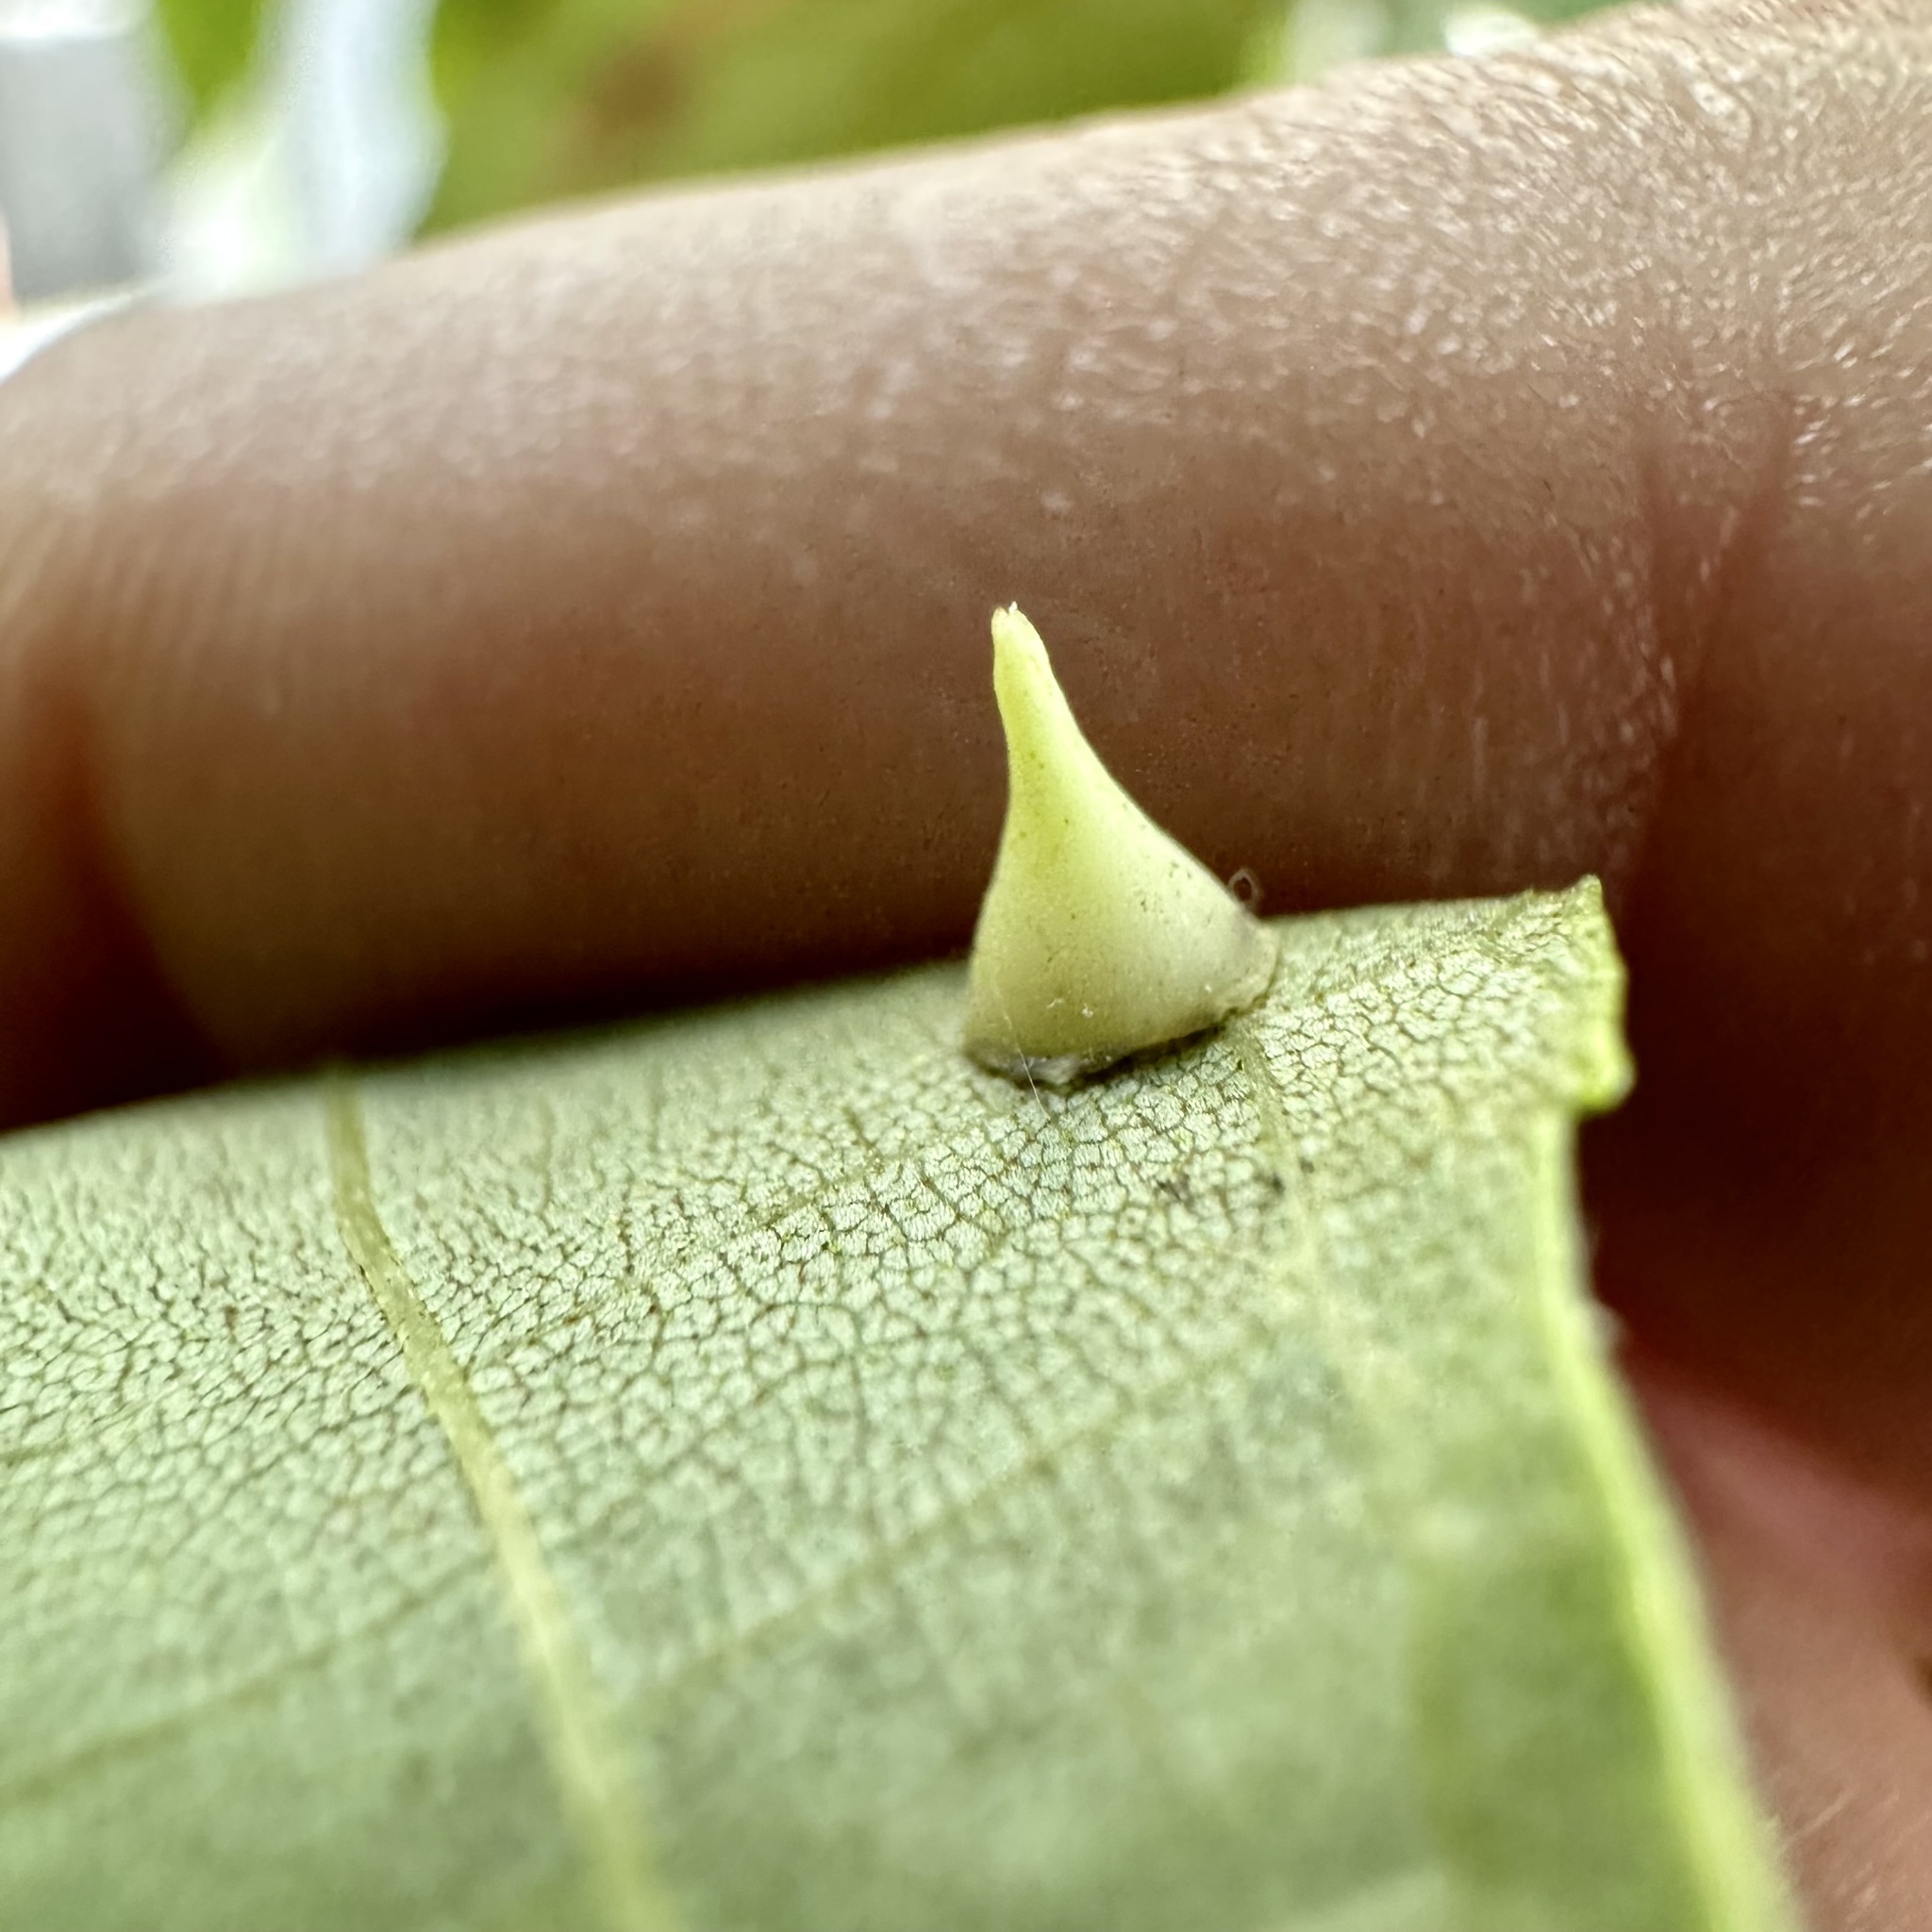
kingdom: Animalia
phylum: Arthropoda
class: Insecta
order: Diptera
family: Cecidomyiidae
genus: Caryomyia
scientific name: Caryomyia sanguinolenta
